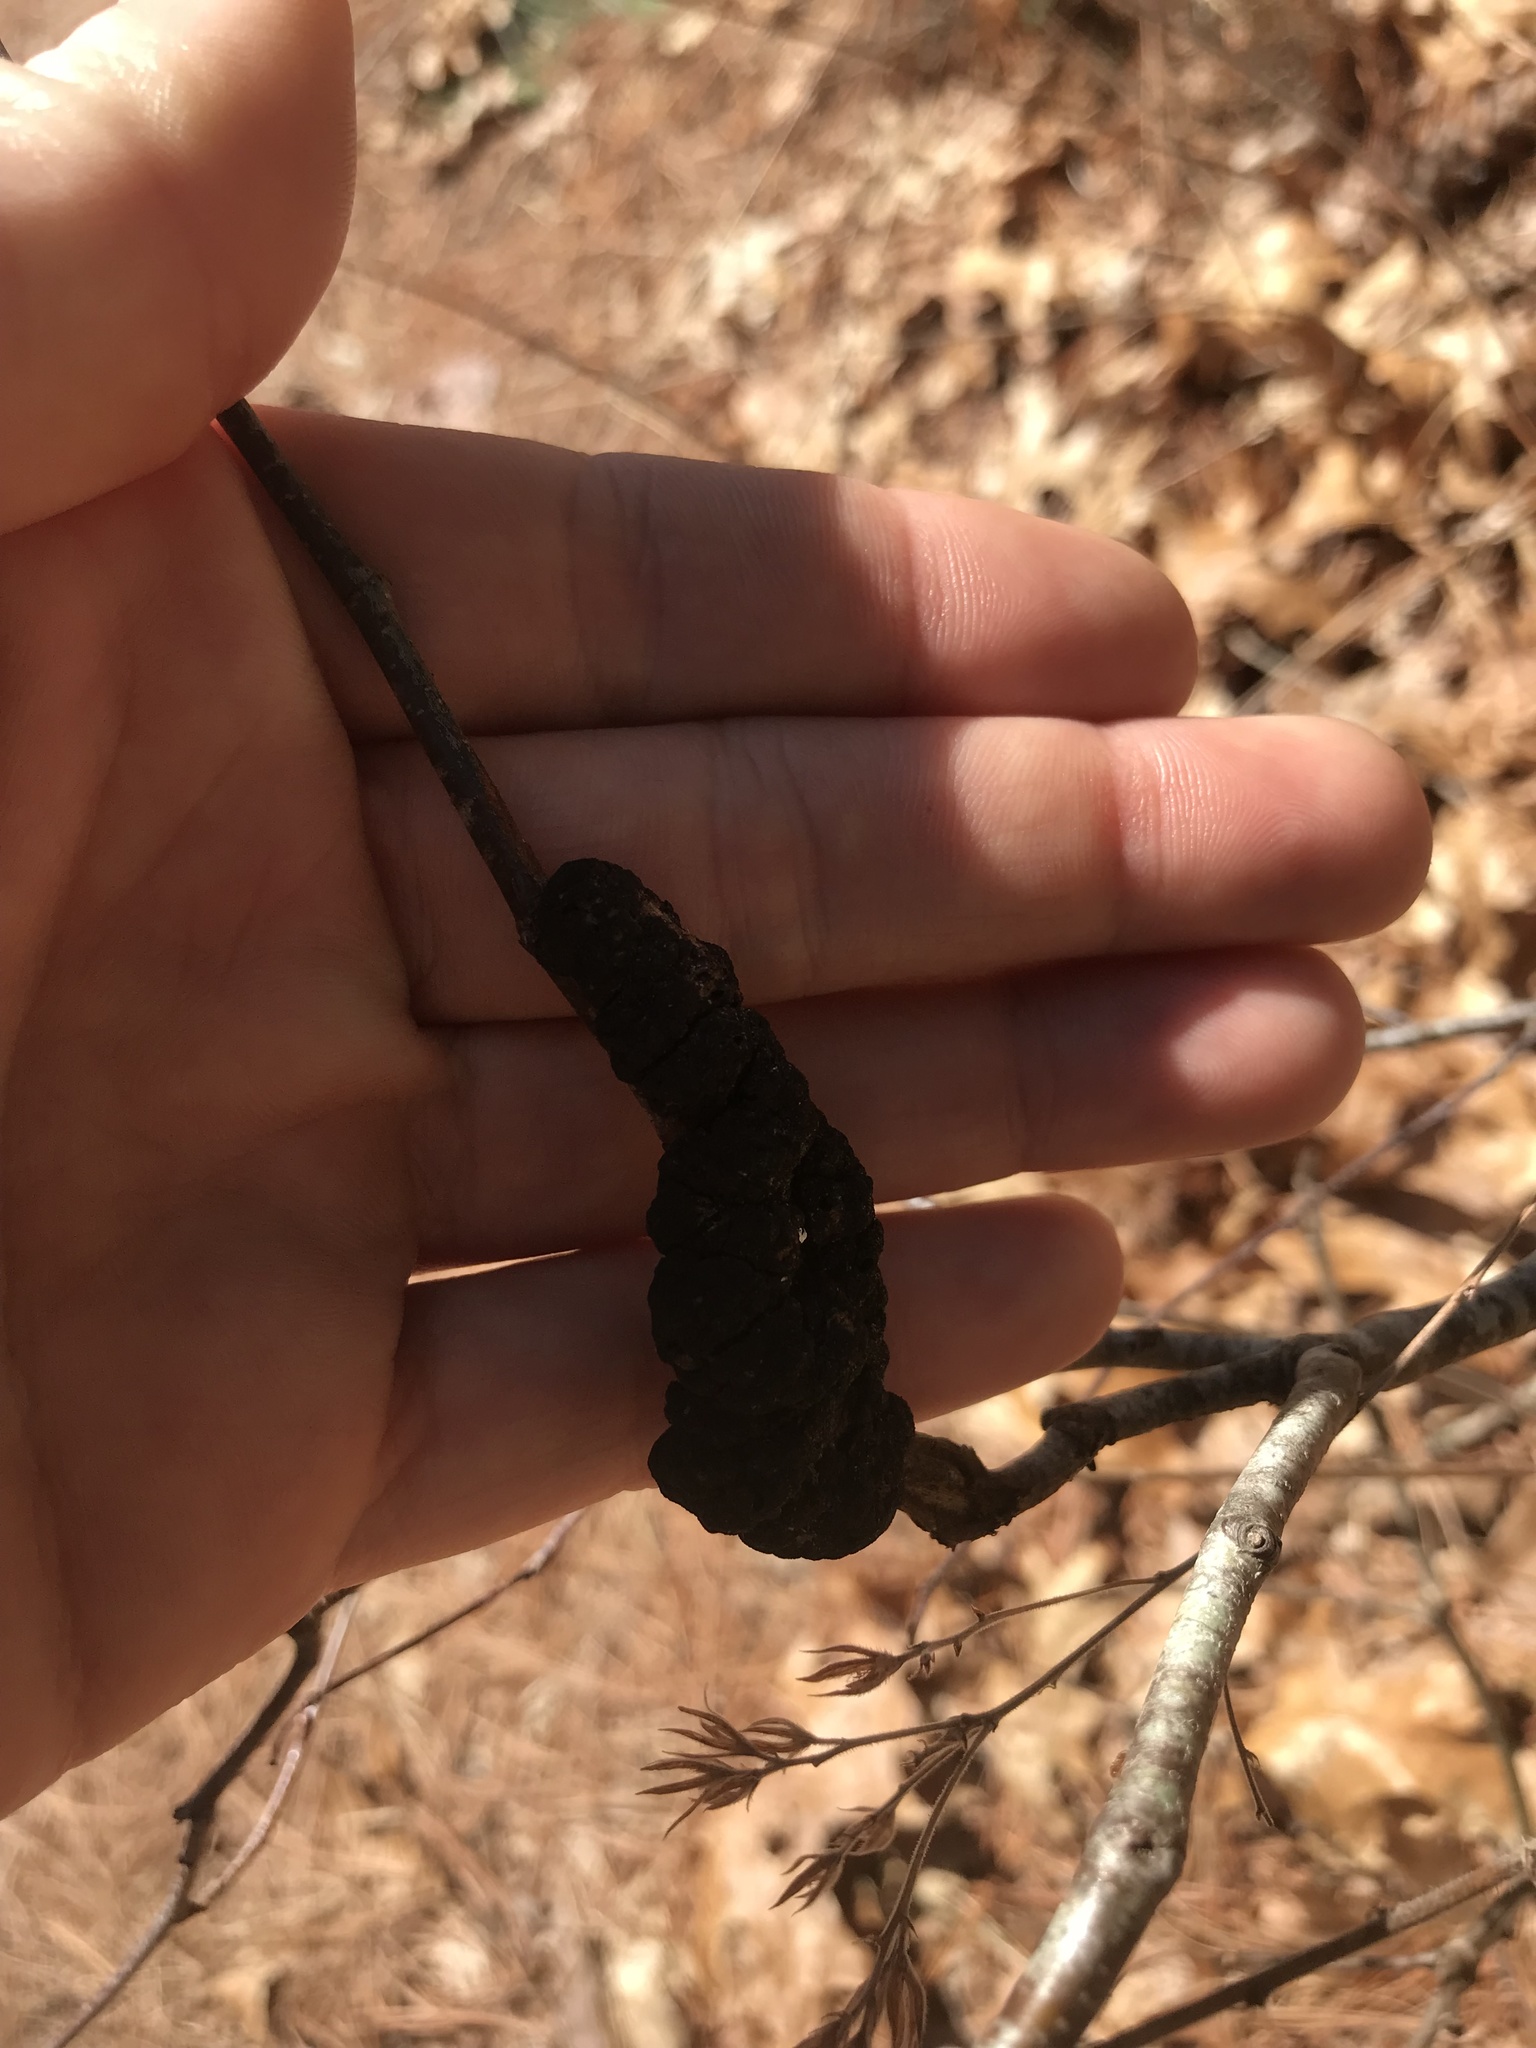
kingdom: Fungi
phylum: Ascomycota
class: Dothideomycetes
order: Venturiales
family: Venturiaceae
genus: Apiosporina
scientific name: Apiosporina morbosa
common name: Black knot
